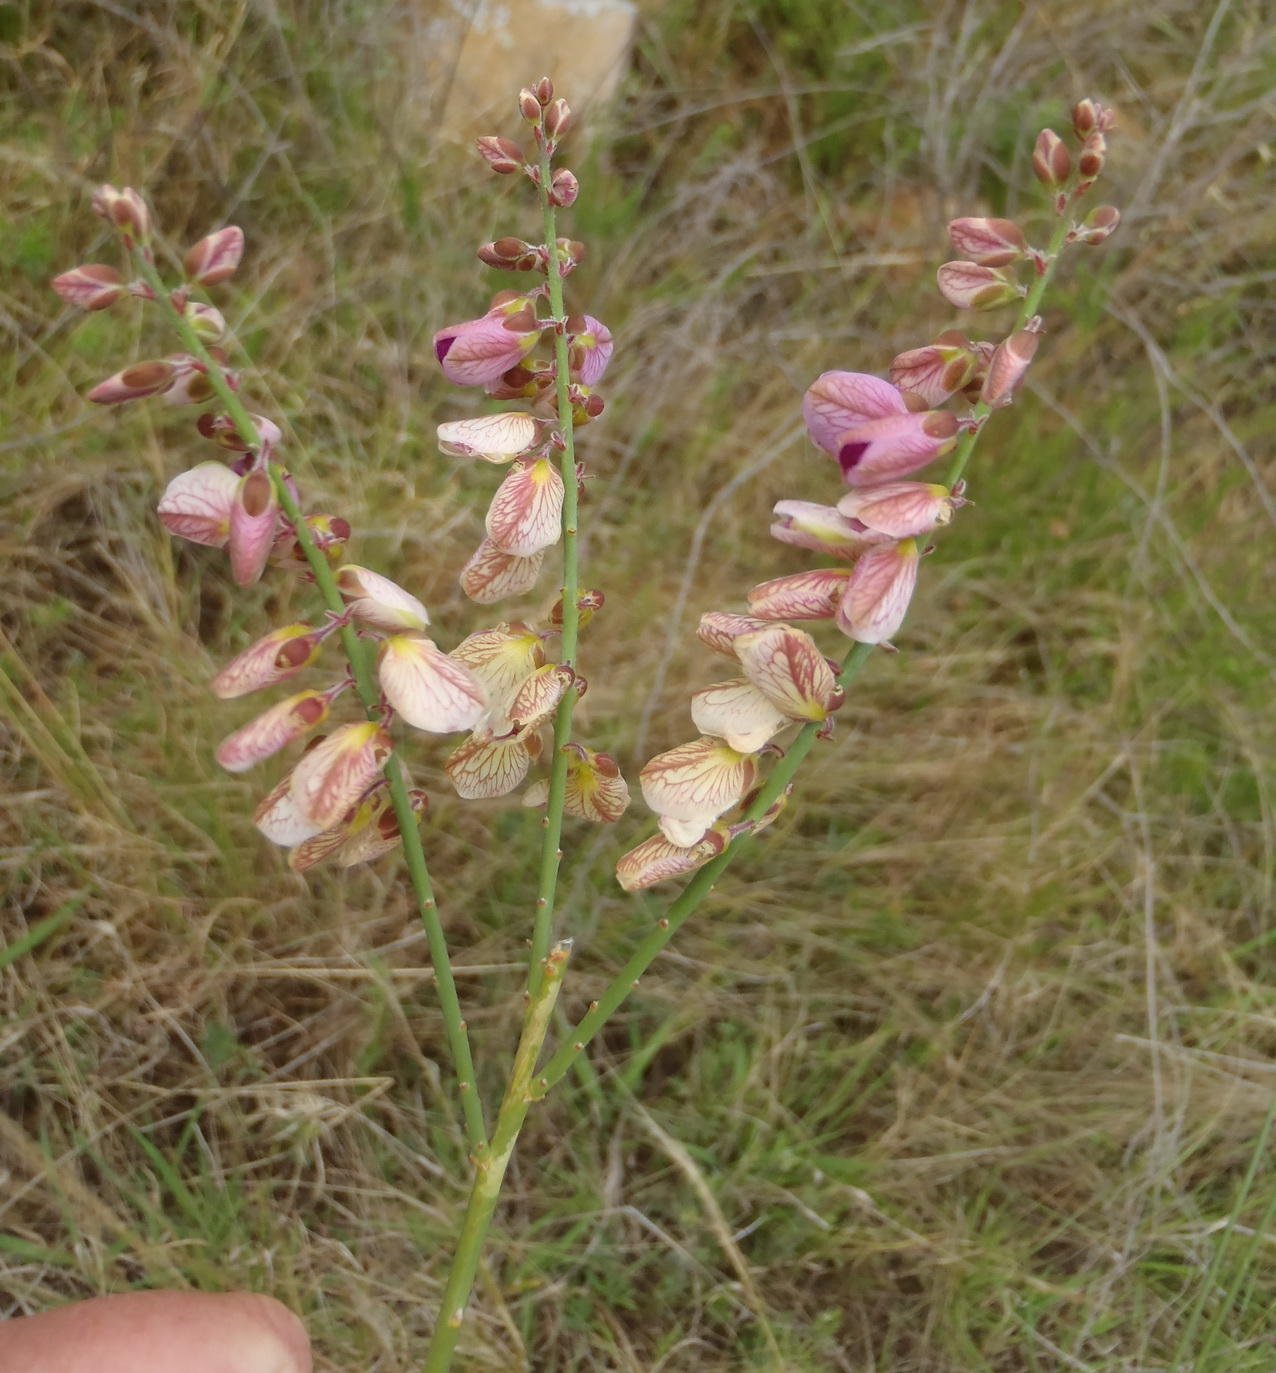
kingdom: Plantae
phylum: Tracheophyta
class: Magnoliopsida
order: Fabales
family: Polygalaceae
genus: Polygala
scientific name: Polygala virgata
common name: Milkwort
